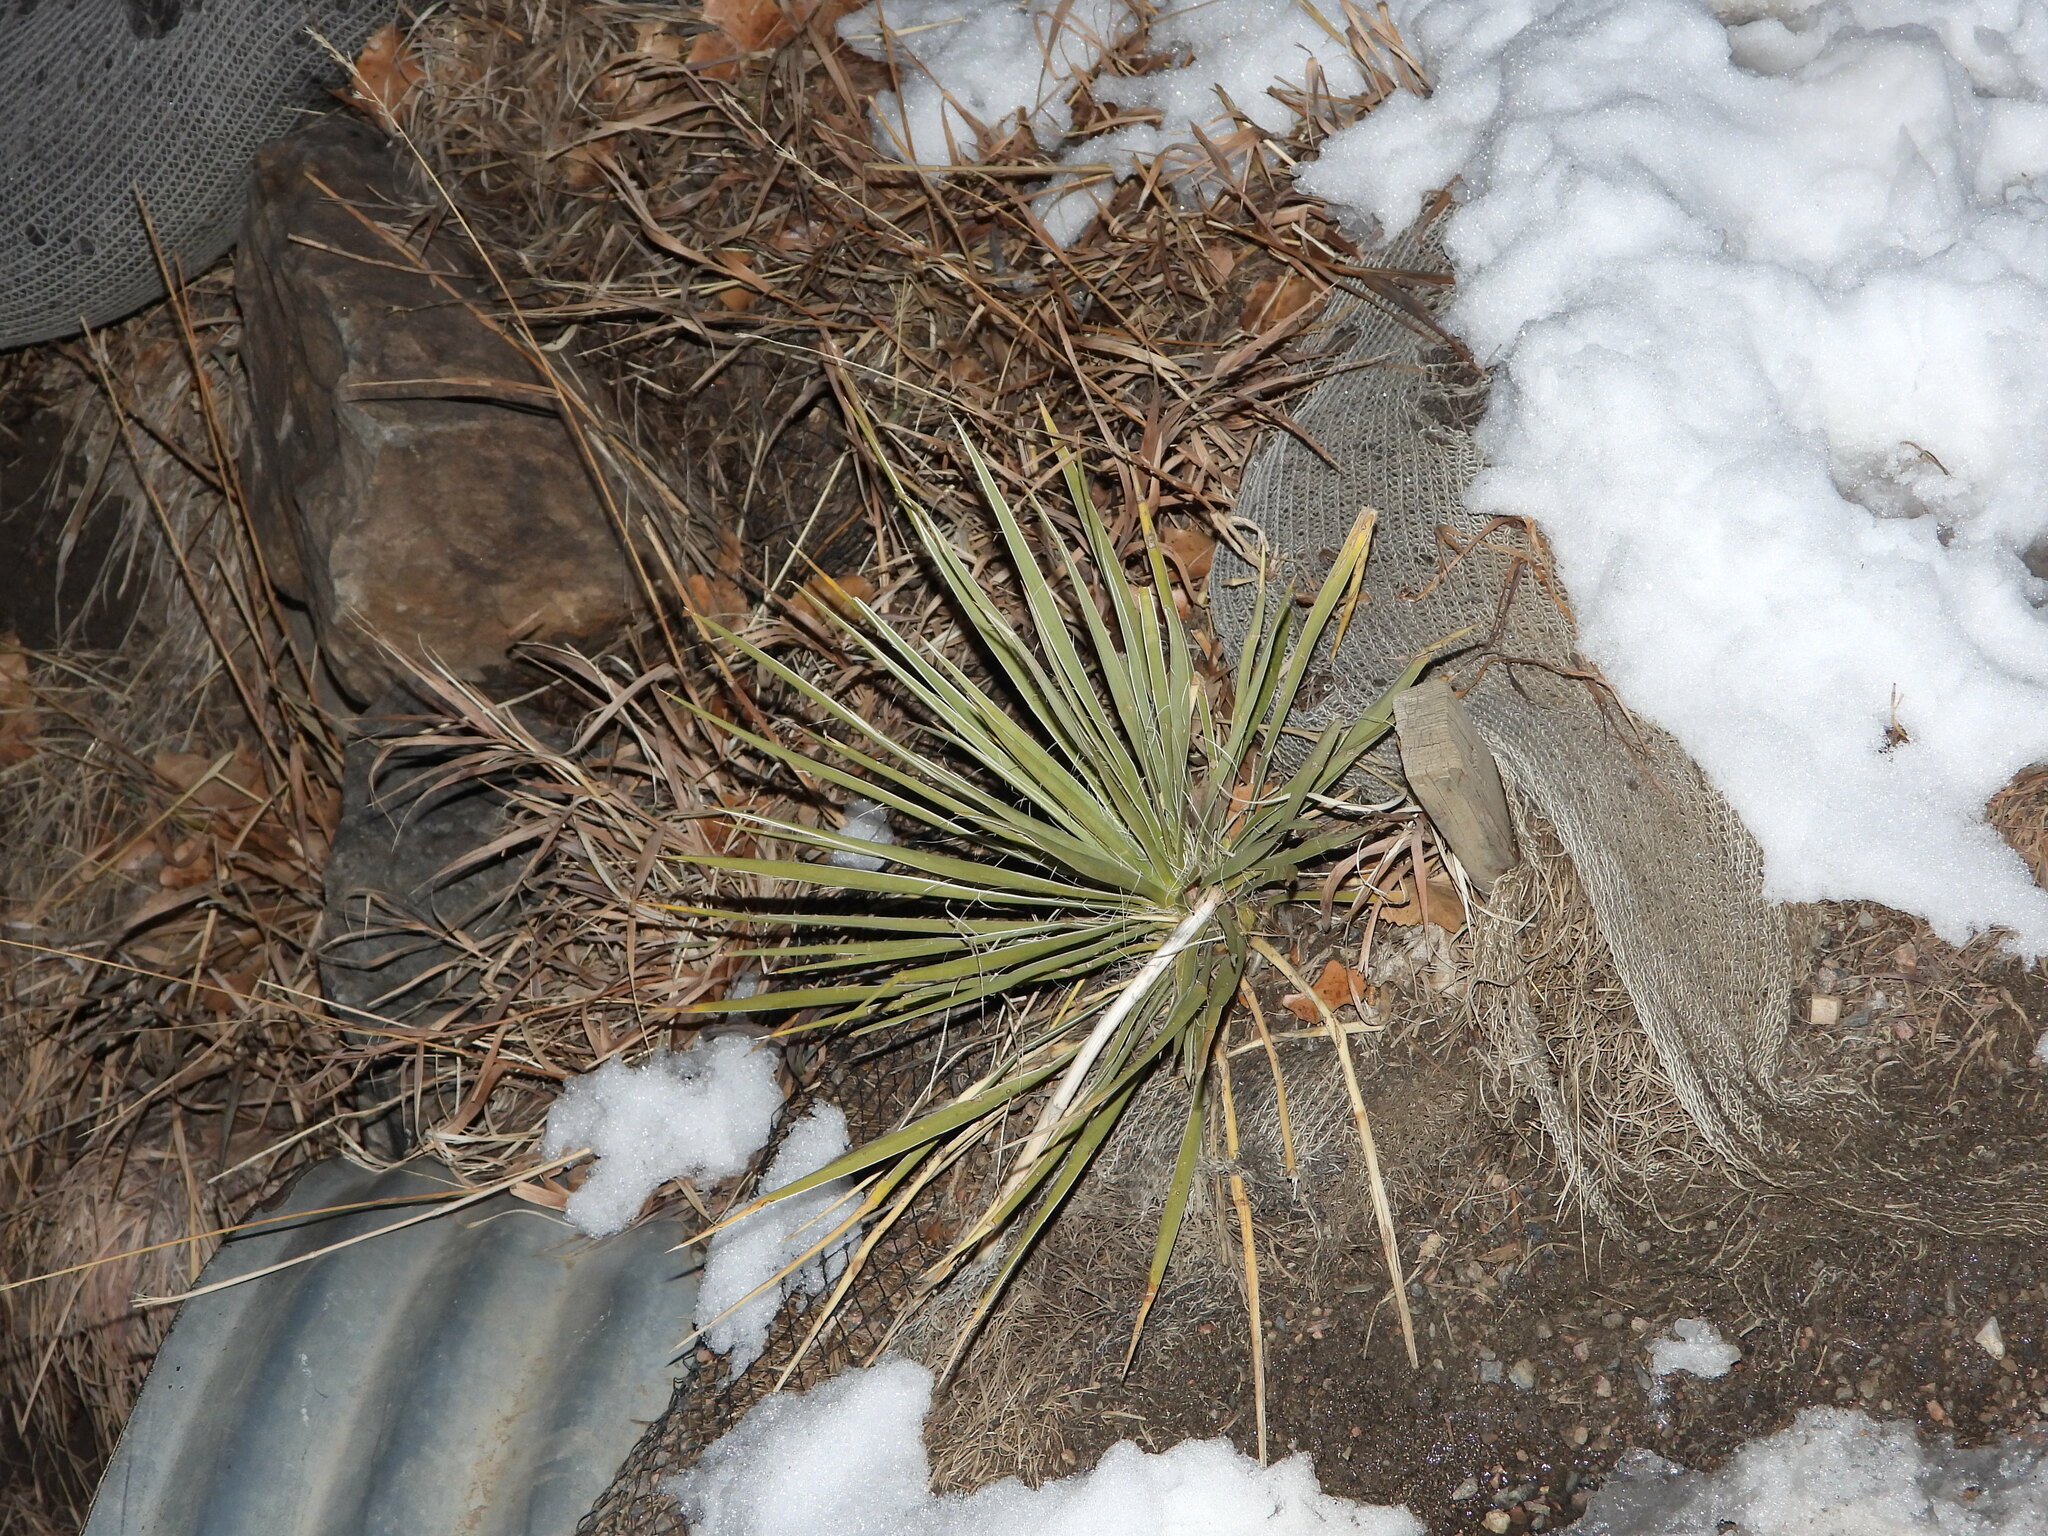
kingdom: Plantae
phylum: Tracheophyta
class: Liliopsida
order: Asparagales
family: Asparagaceae
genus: Yucca
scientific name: Yucca glauca
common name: Great plains yucca
